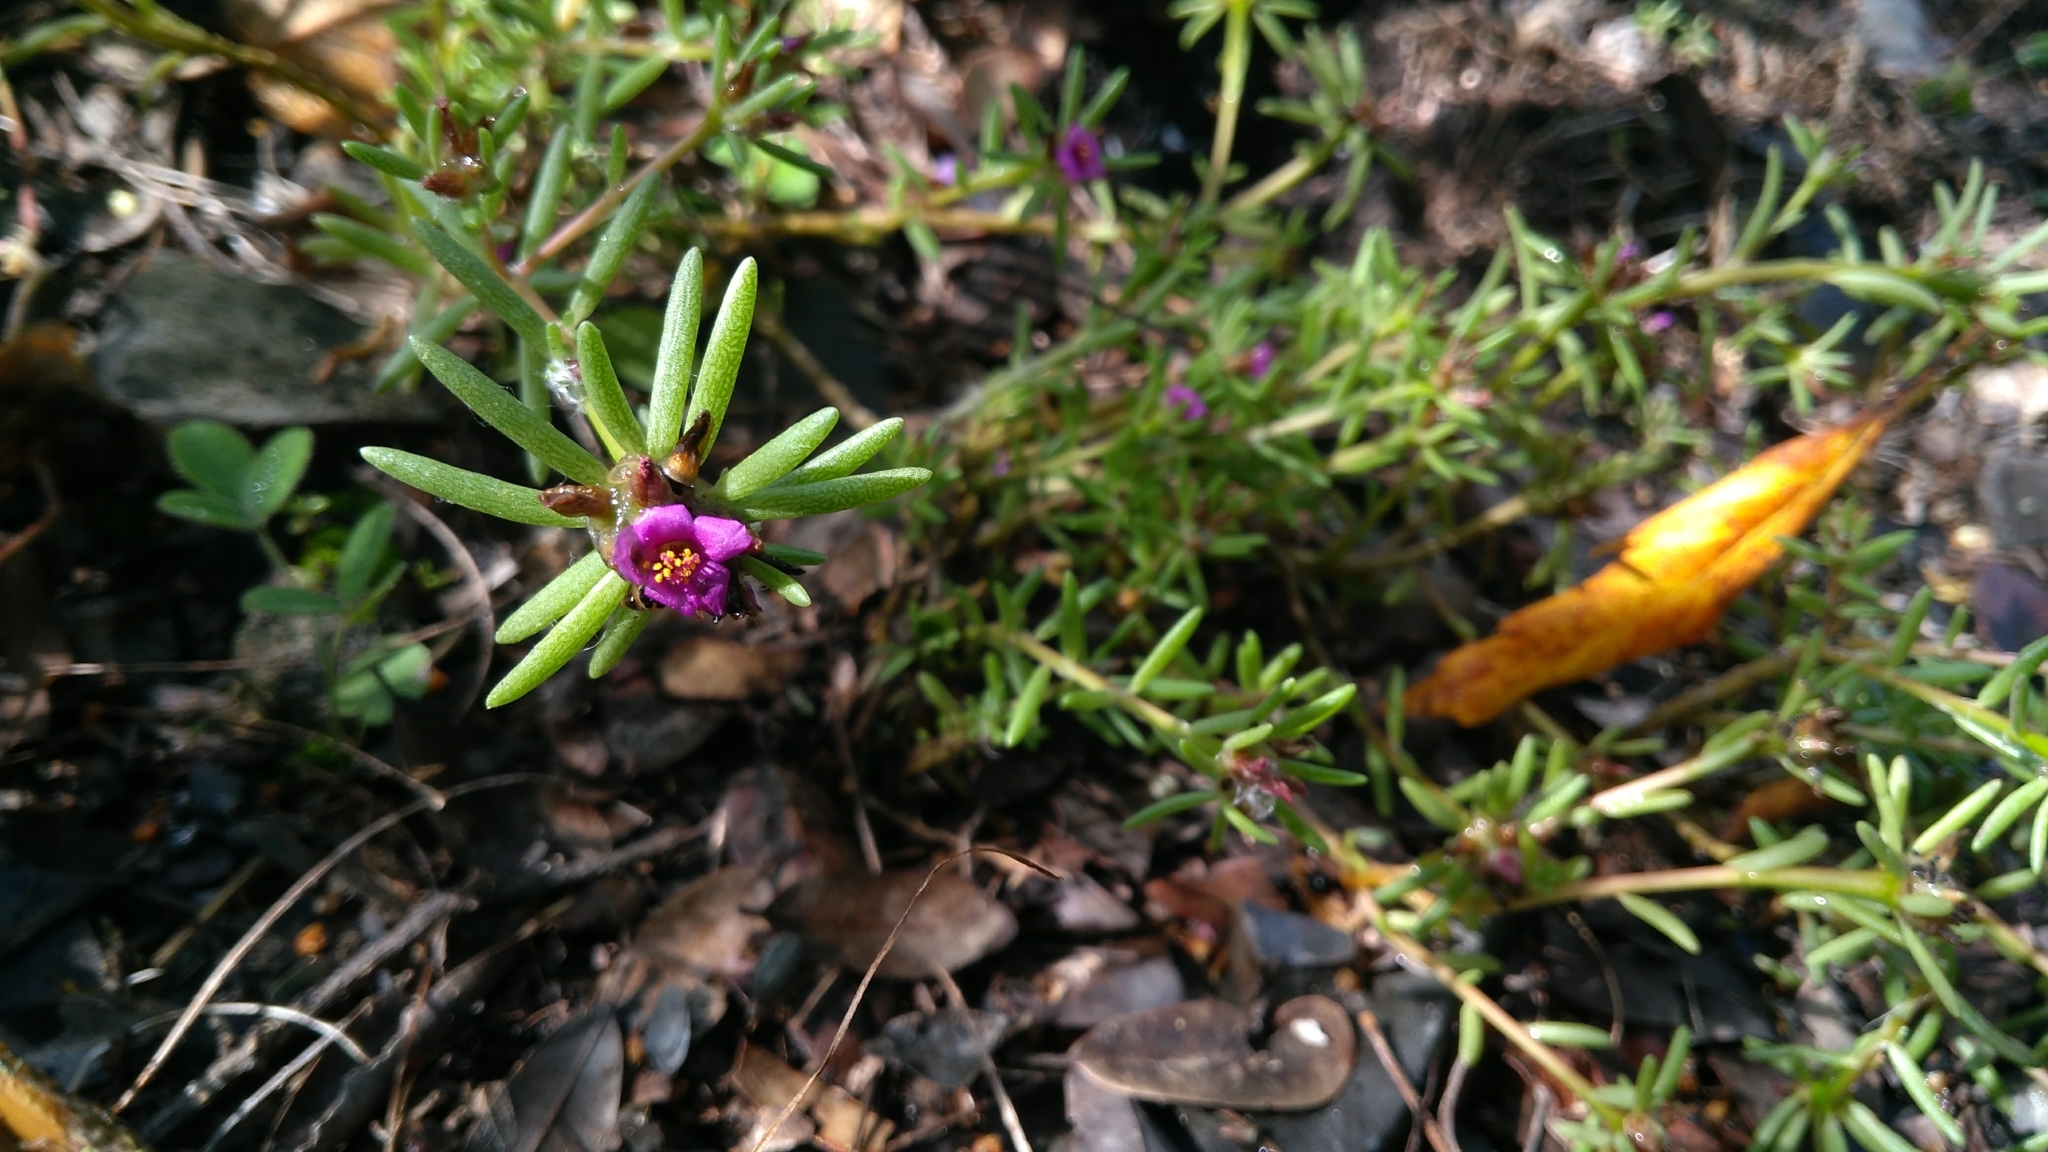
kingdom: Plantae
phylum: Tracheophyta
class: Magnoliopsida
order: Caryophyllales
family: Portulacaceae
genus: Portulaca
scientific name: Portulaca pilosa
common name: Kiss me quick
